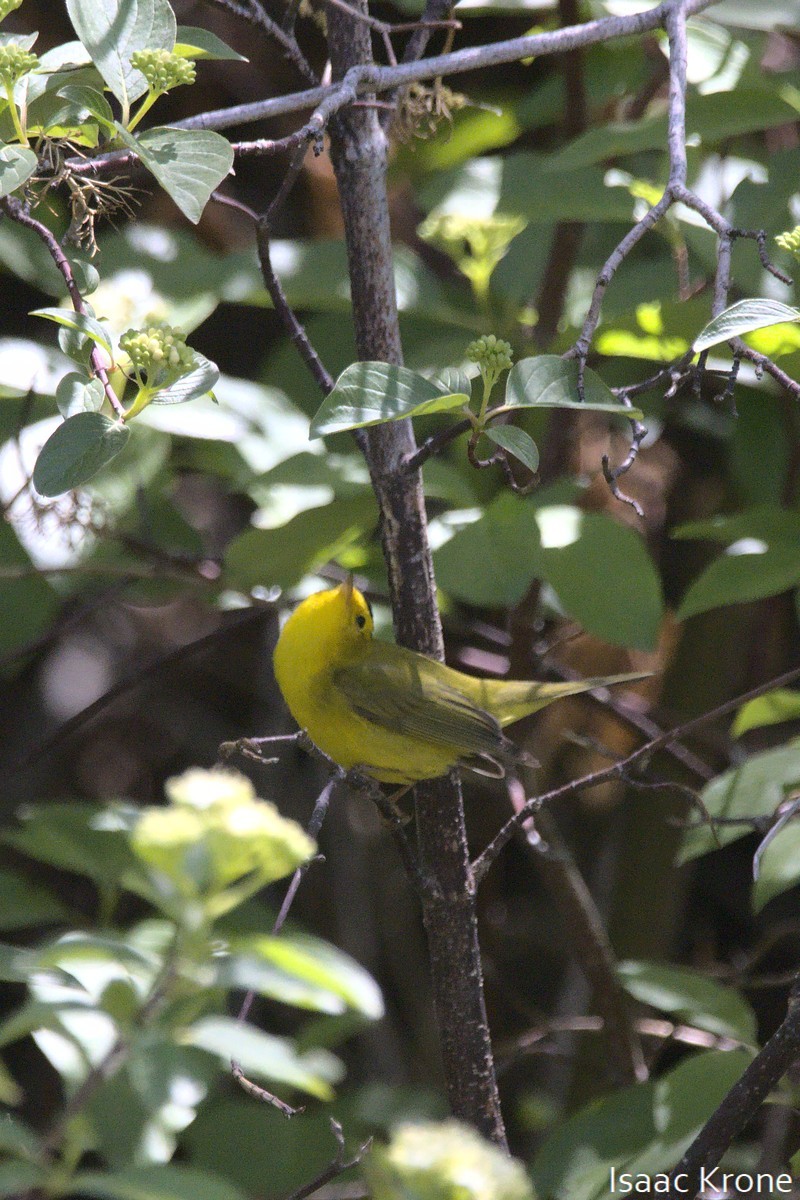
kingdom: Animalia
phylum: Chordata
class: Aves
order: Passeriformes
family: Parulidae
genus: Cardellina
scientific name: Cardellina pusilla
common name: Wilson's warbler
